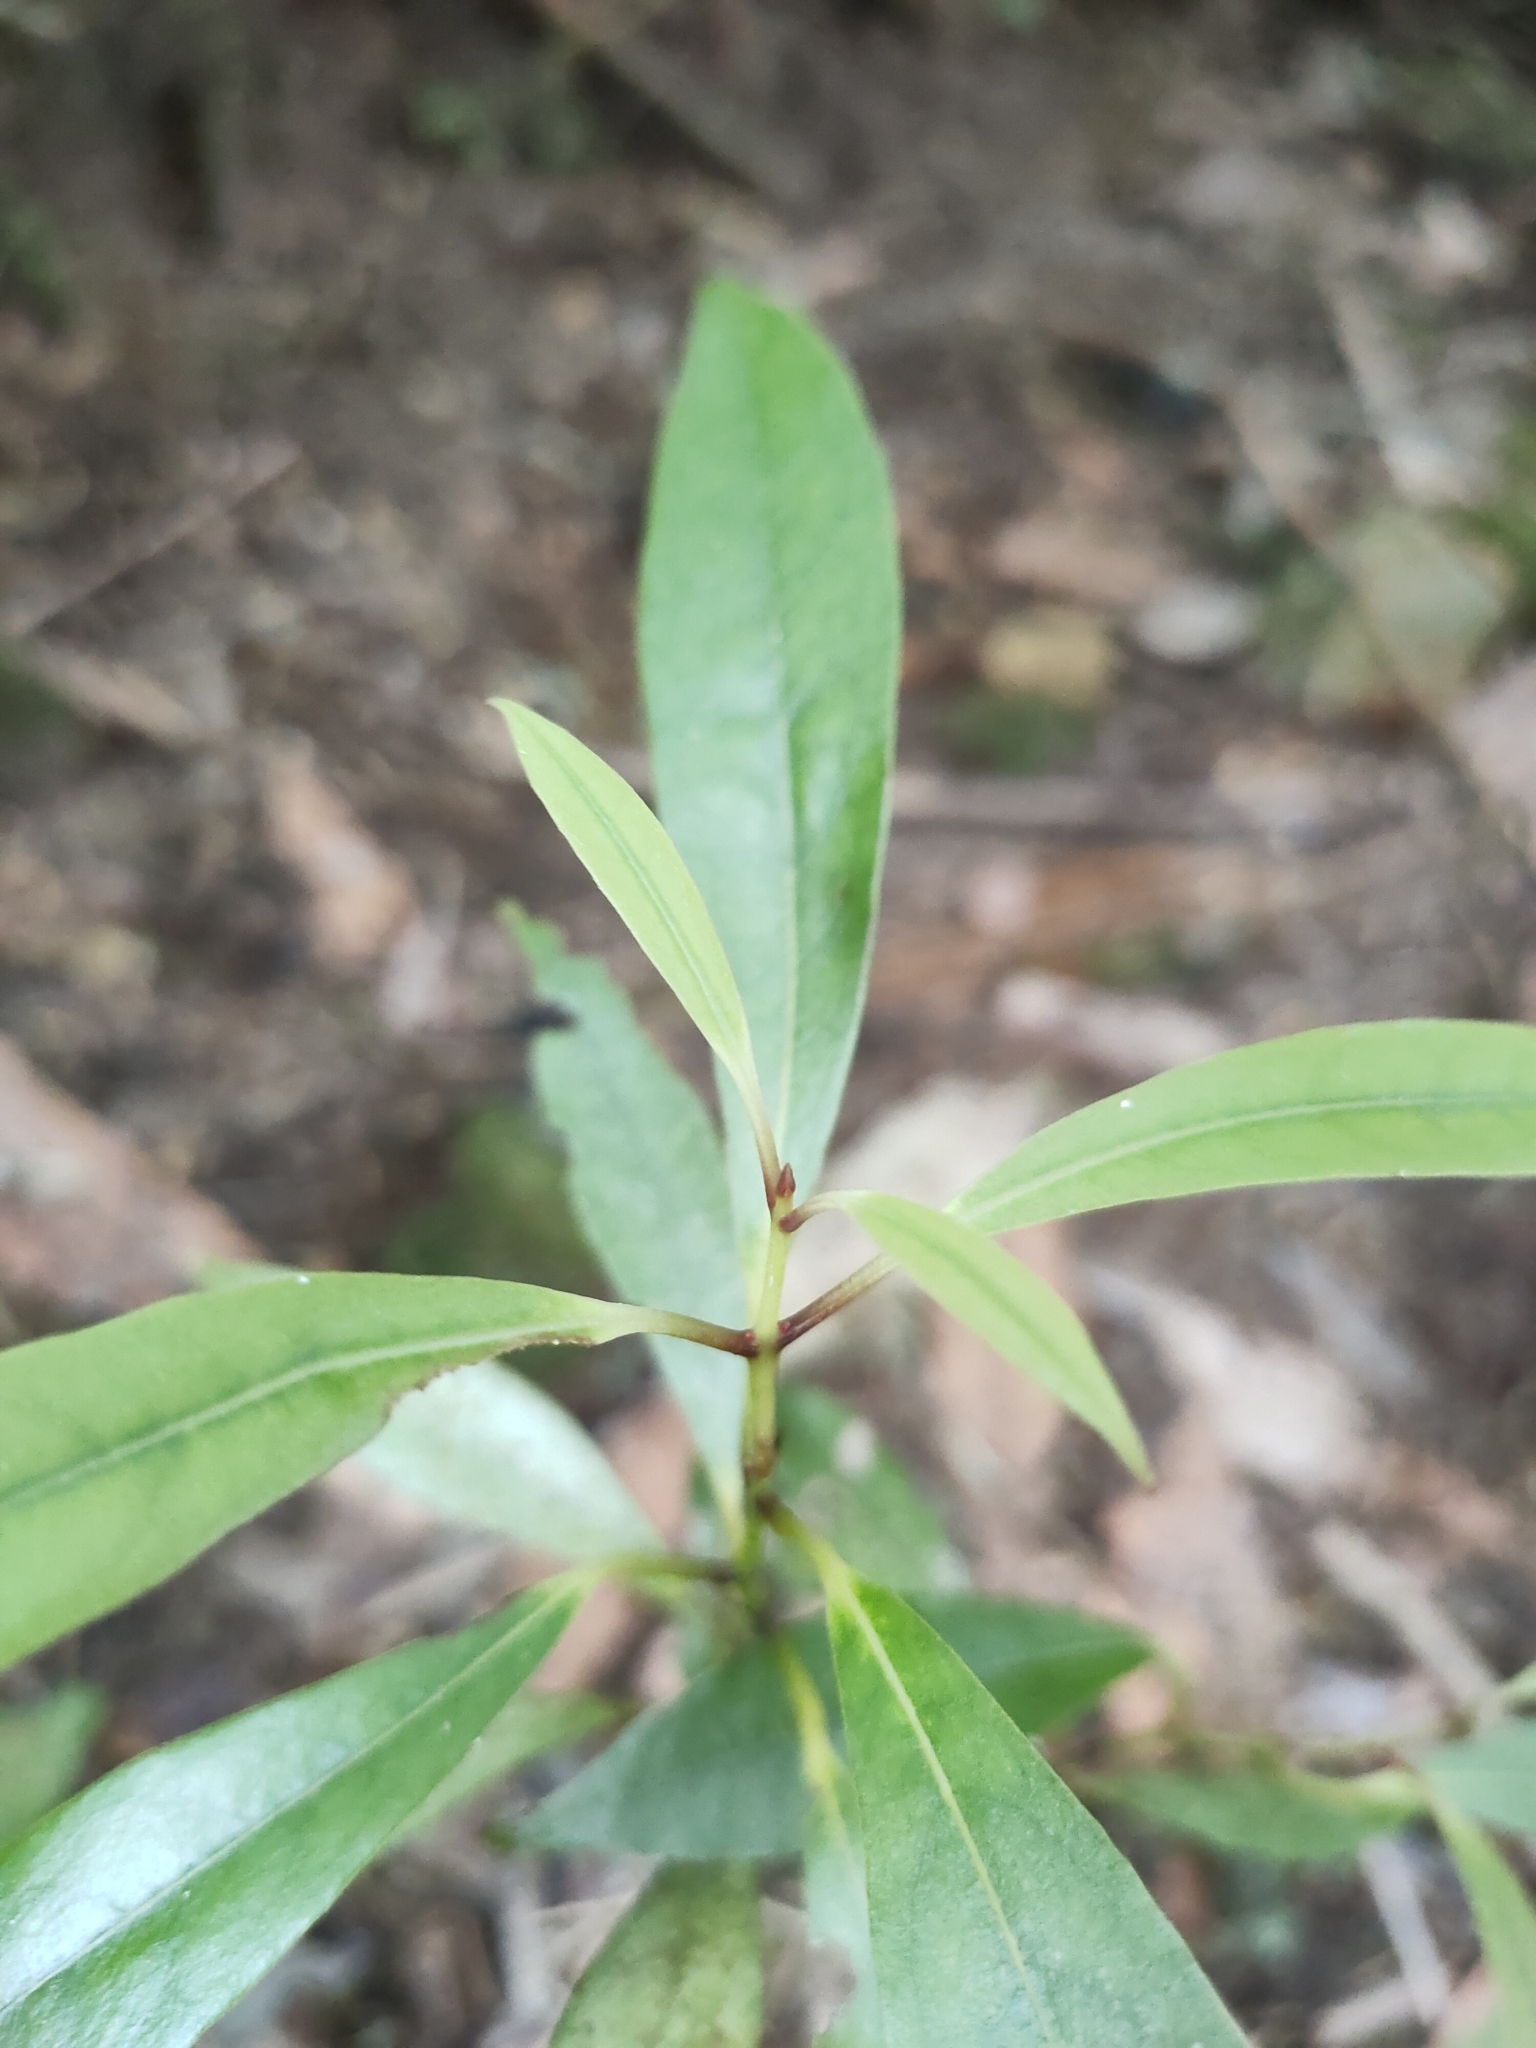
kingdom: Plantae
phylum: Tracheophyta
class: Magnoliopsida
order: Laurales
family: Lauraceae
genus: Beilschmiedia
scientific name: Beilschmiedia tawa
